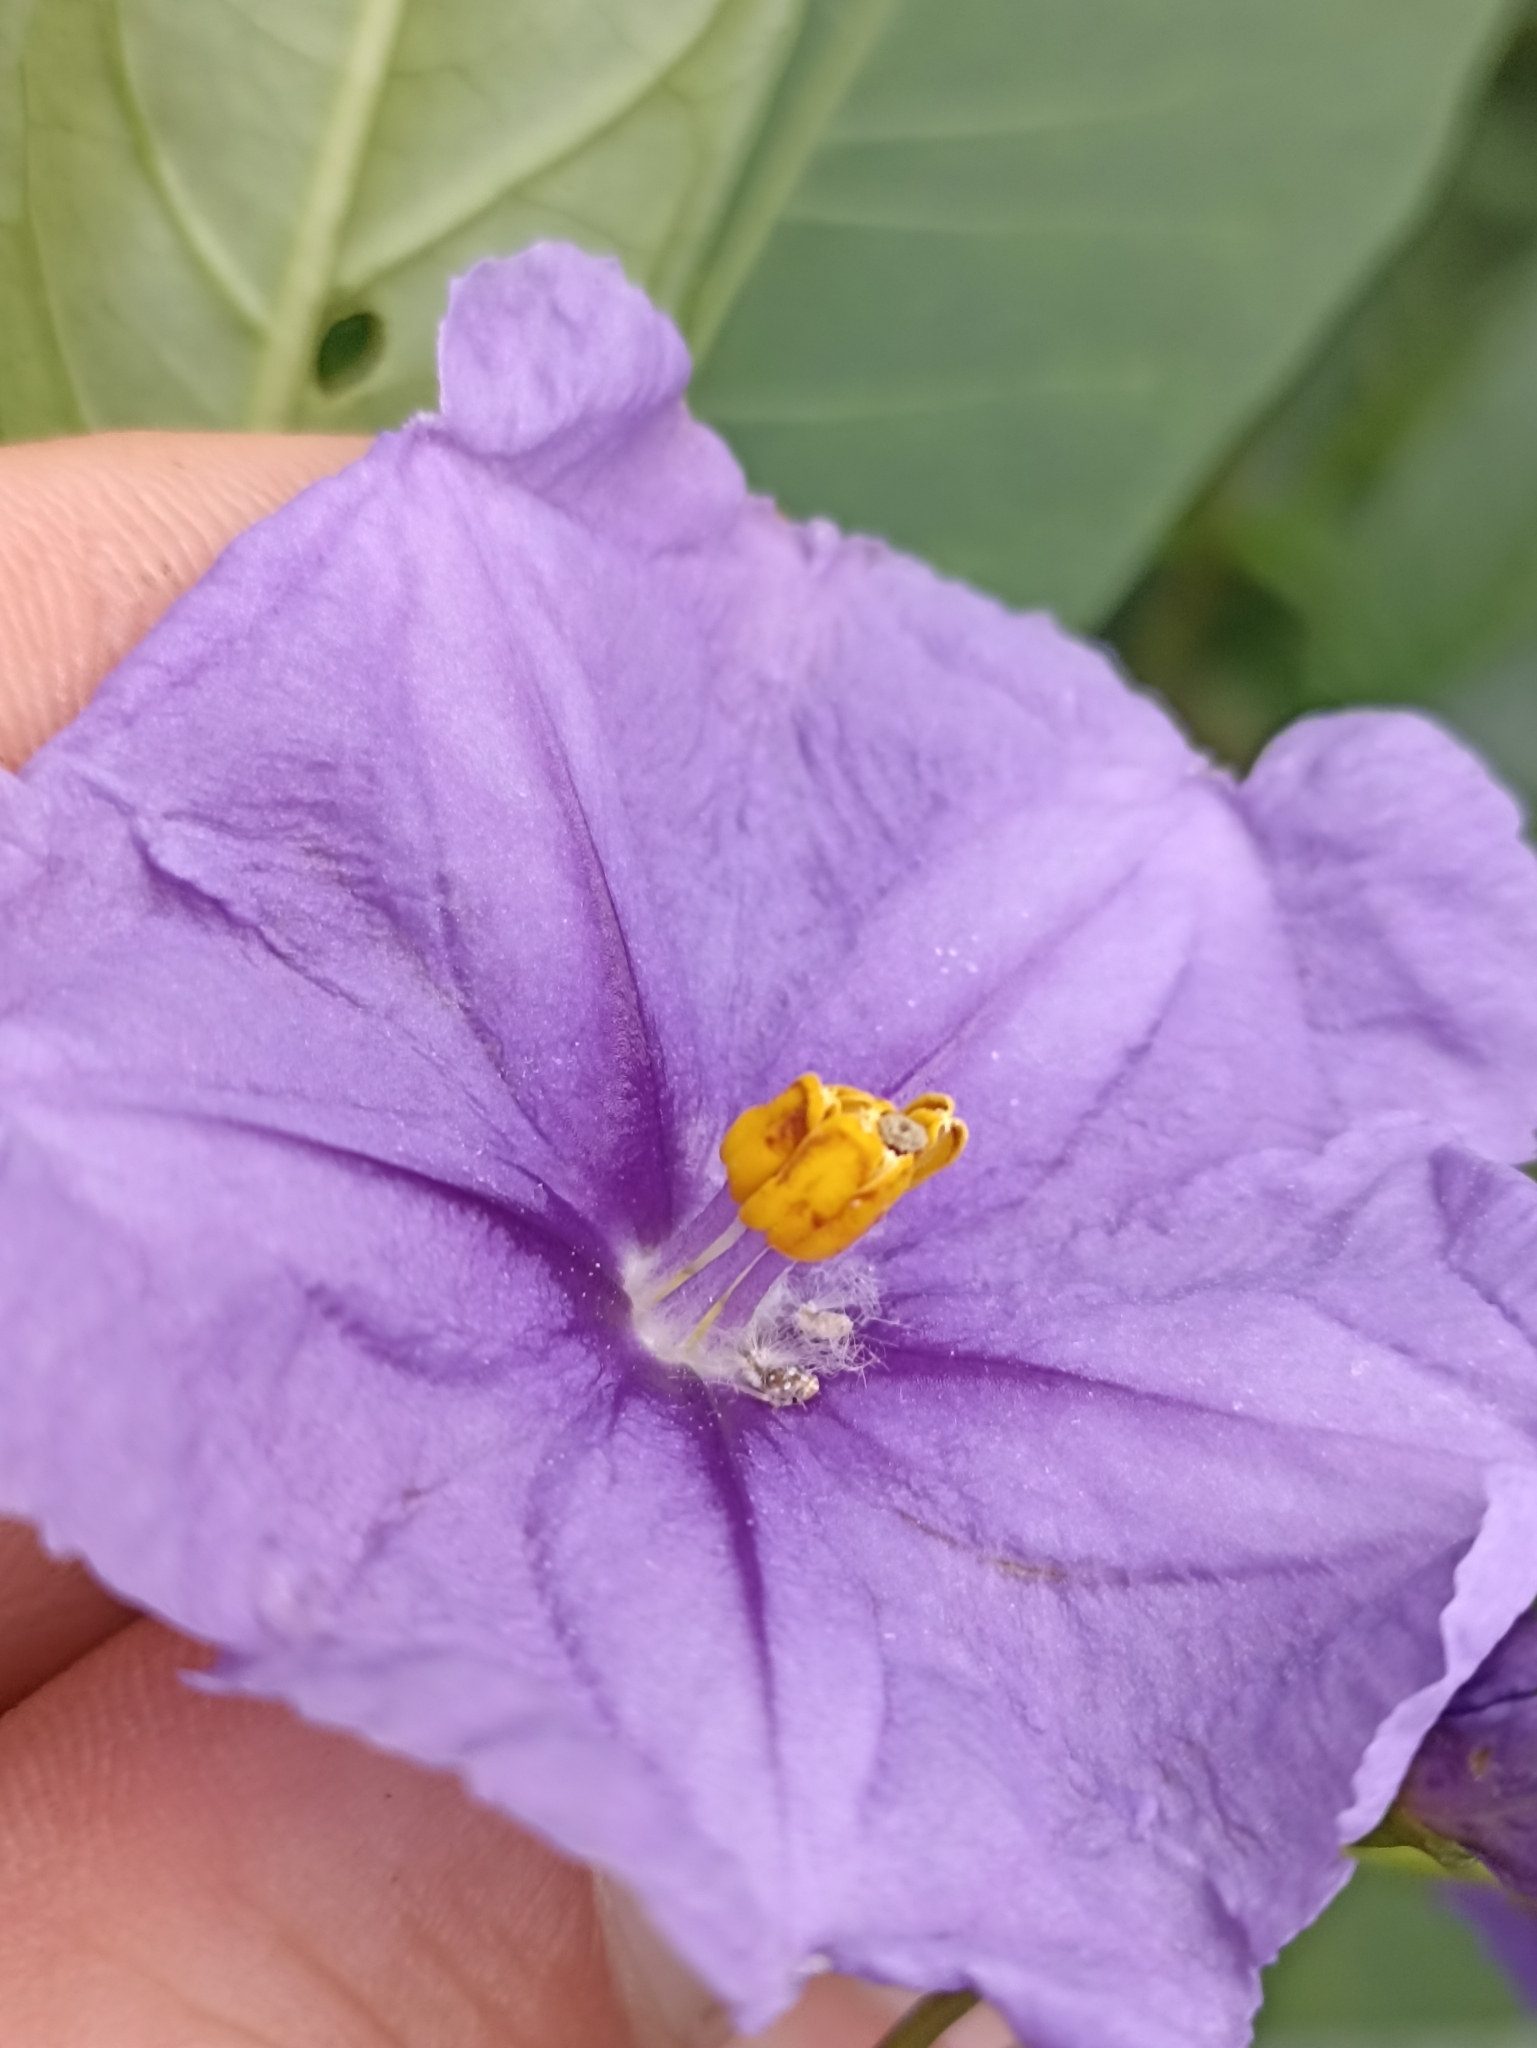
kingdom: Plantae
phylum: Tracheophyta
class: Magnoliopsida
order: Solanales
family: Solanaceae
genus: Solanum
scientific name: Solanum laciniatum
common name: Kangaroo-apple
